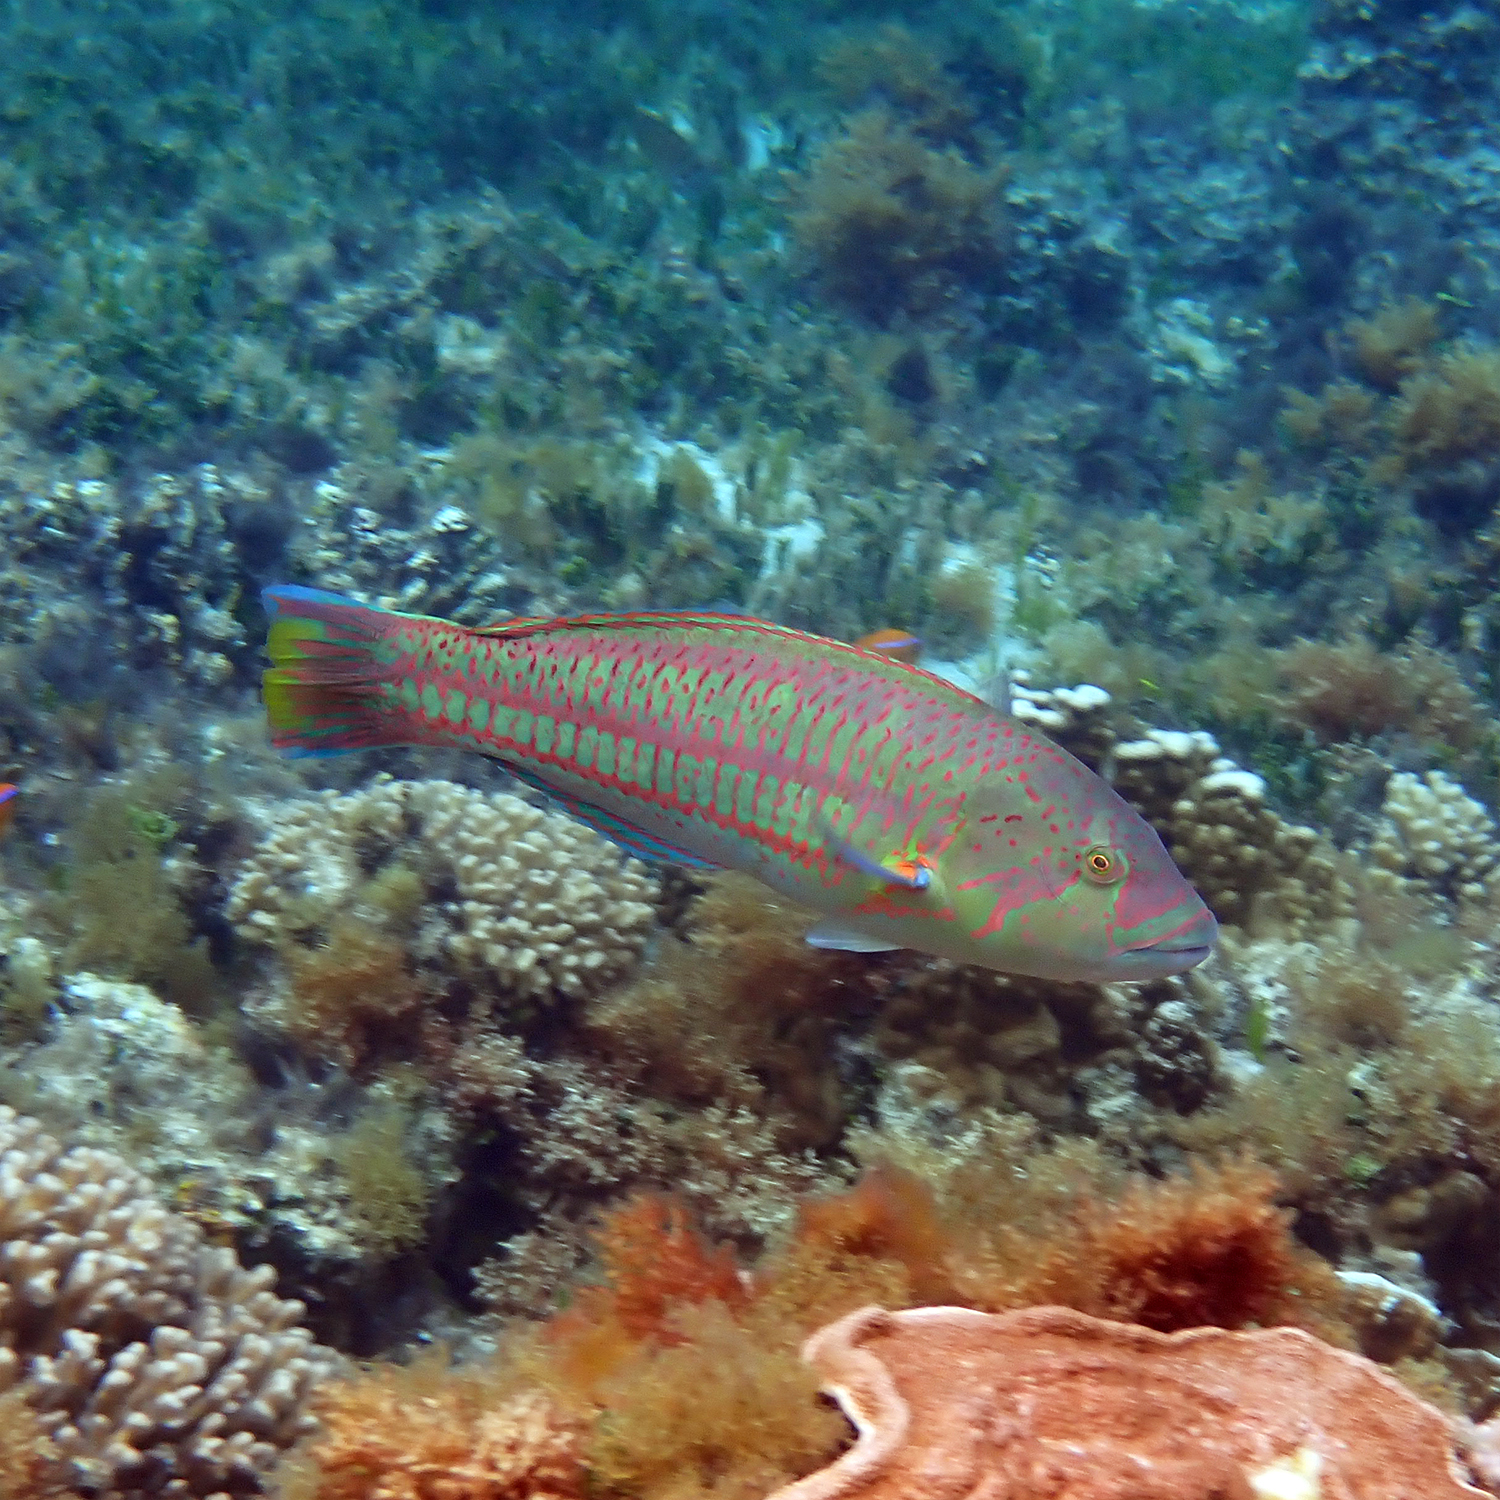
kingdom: Animalia
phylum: Chordata
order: Perciformes
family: Labridae
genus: Thalassoma
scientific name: Thalassoma purpureum
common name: Parrotfish
